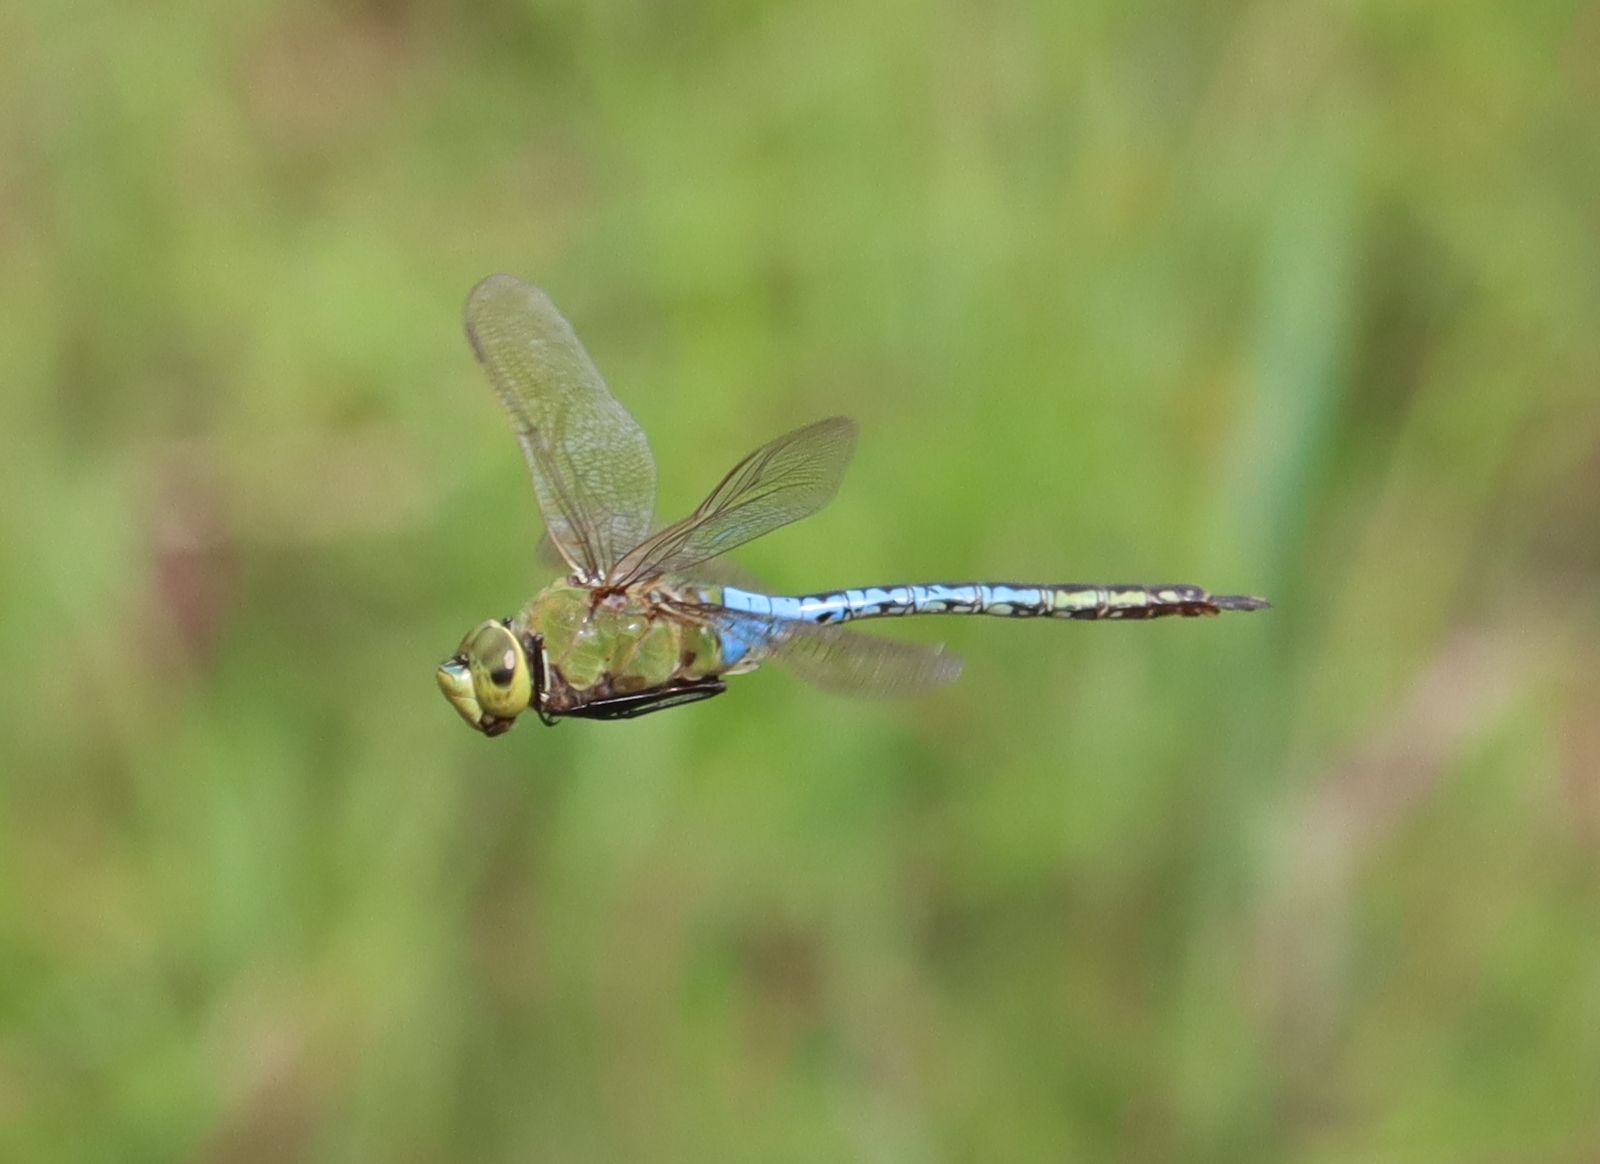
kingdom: Animalia
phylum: Arthropoda
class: Insecta
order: Odonata
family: Aeshnidae
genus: Anax
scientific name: Anax junius
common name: Common green darner
